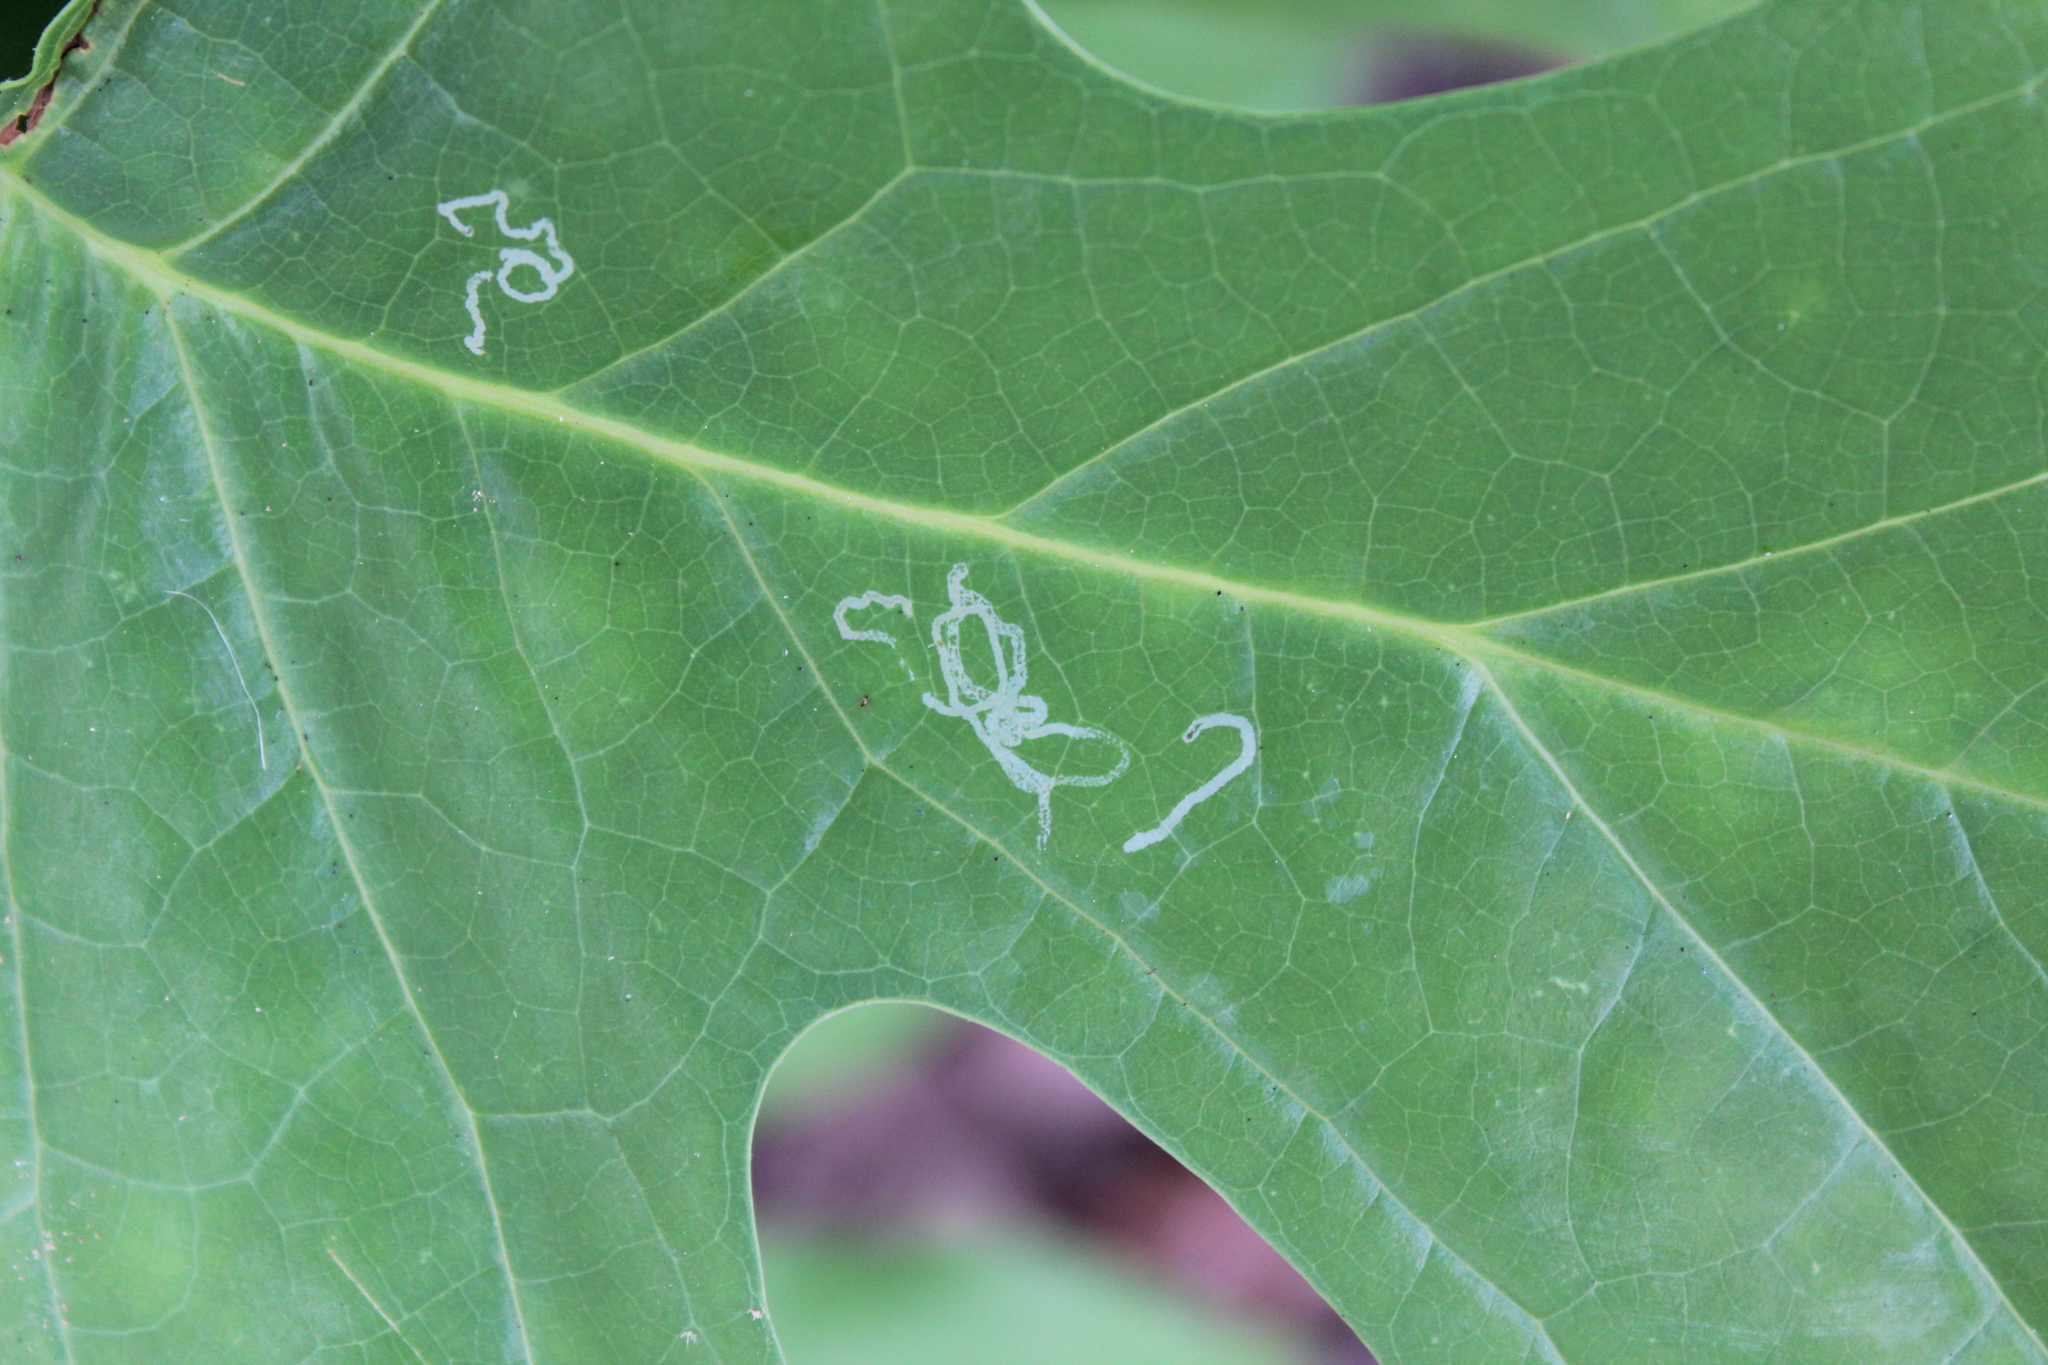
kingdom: Animalia
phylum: Arthropoda
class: Insecta
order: Lepidoptera
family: Gracillariidae
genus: Phyllocnistis
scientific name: Phyllocnistis liriodendronella
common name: Tulip tree leaf miner
